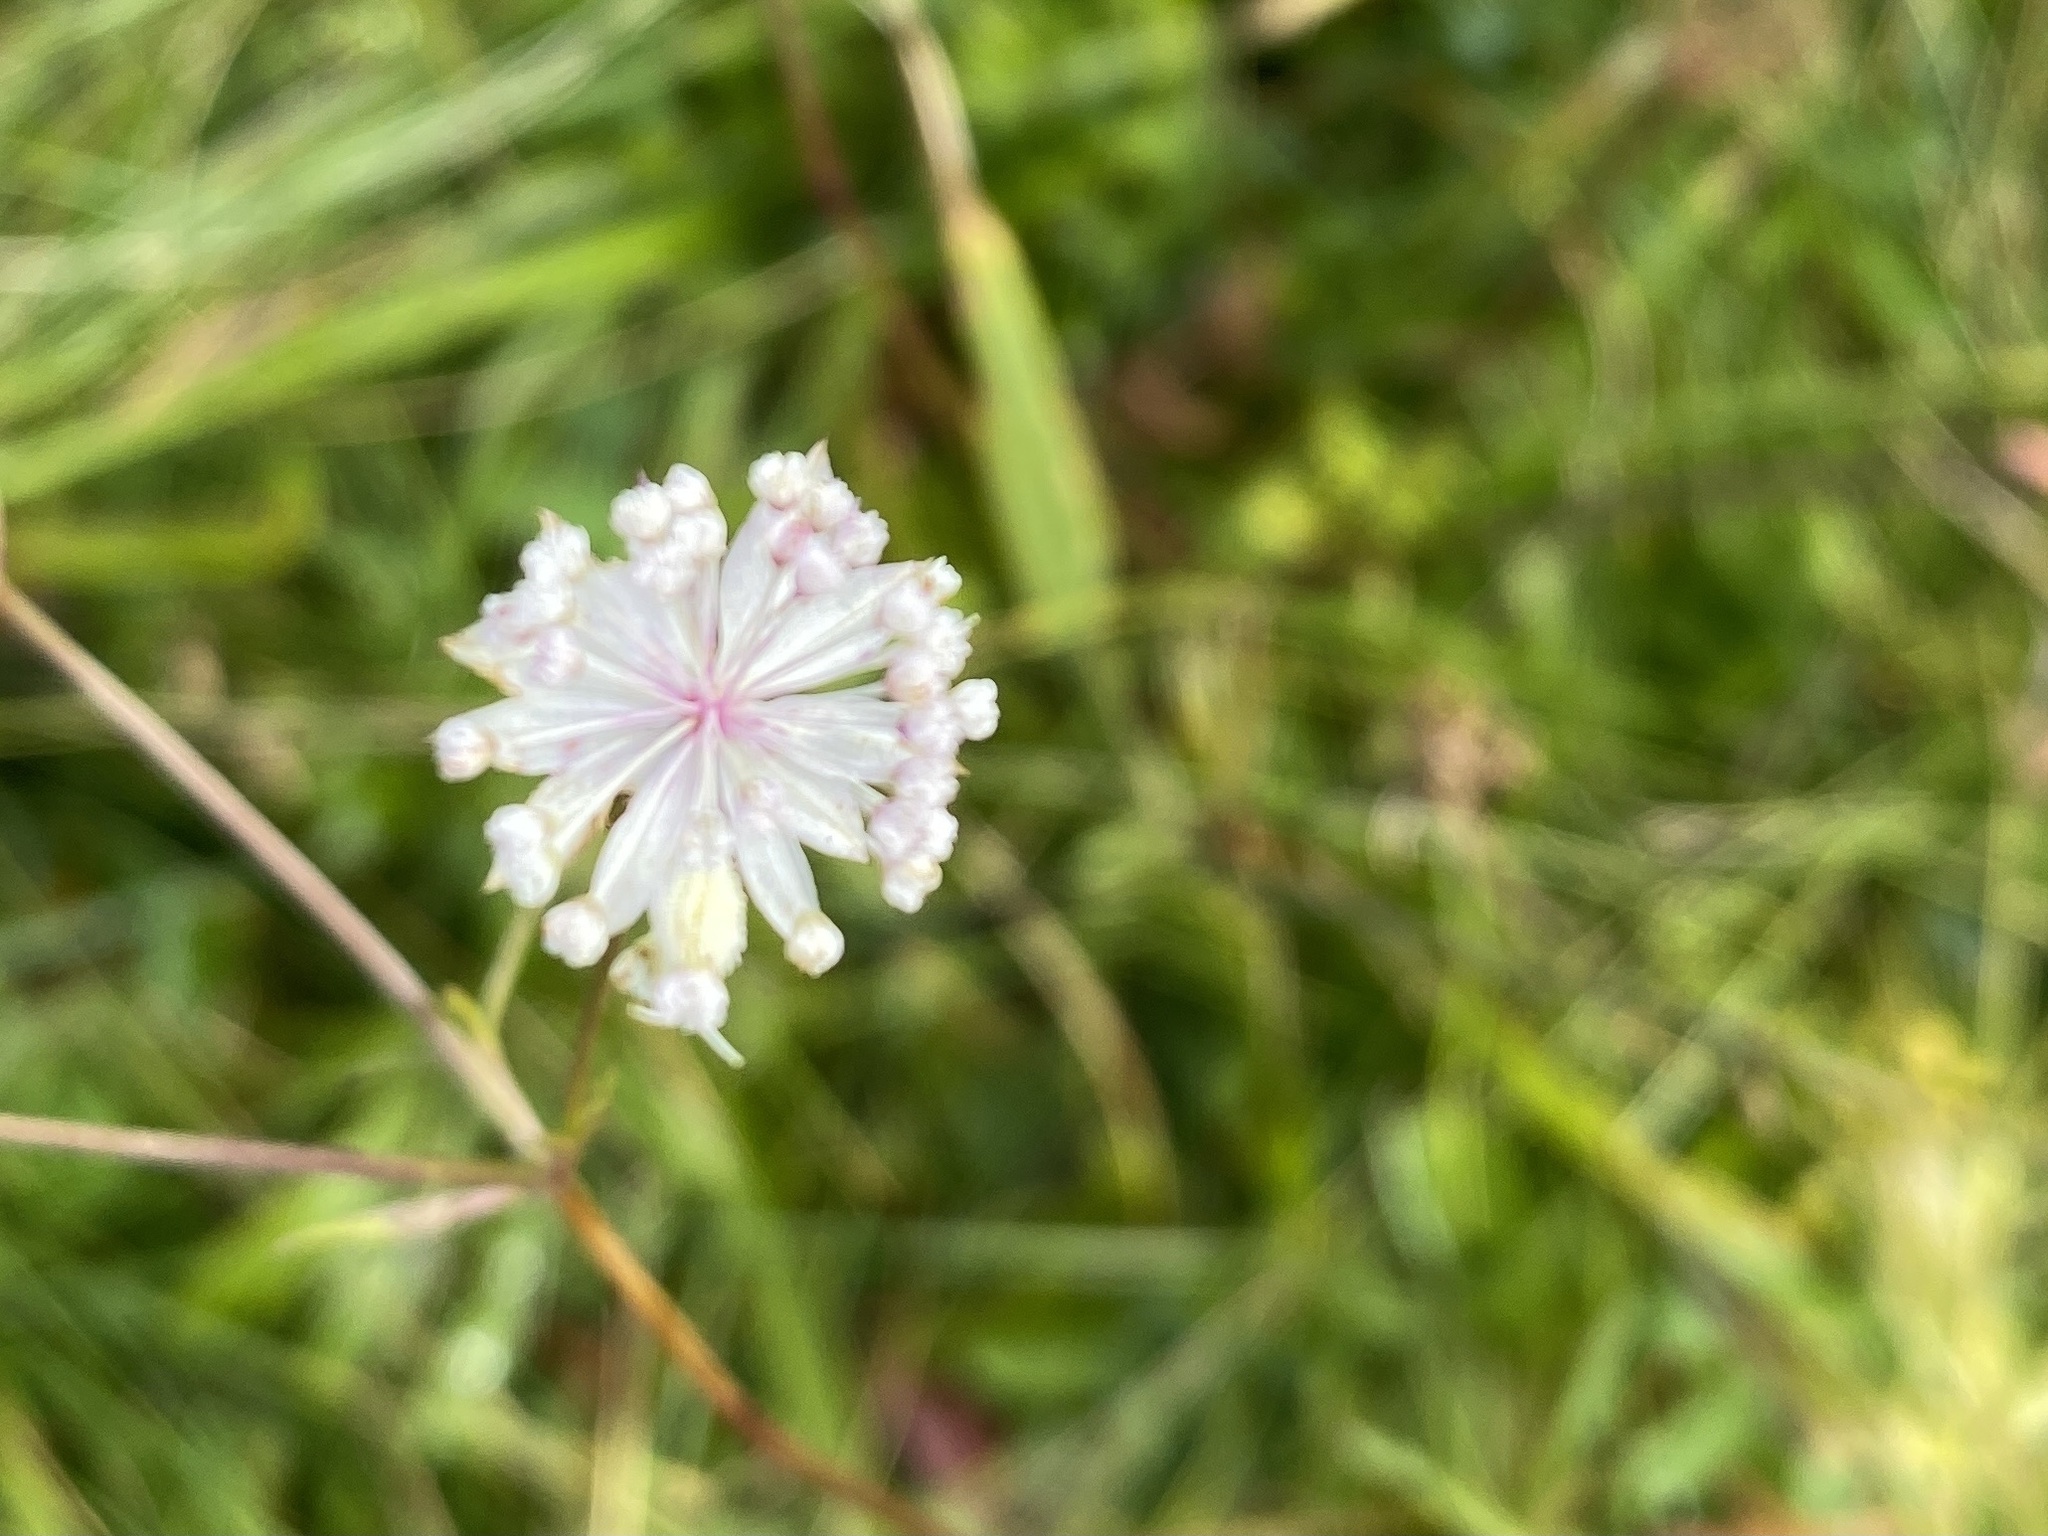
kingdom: Plantae
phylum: Tracheophyta
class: Magnoliopsida
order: Apiales
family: Apiaceae
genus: Astrantia
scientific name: Astrantia minor
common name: Lesser masterwort
